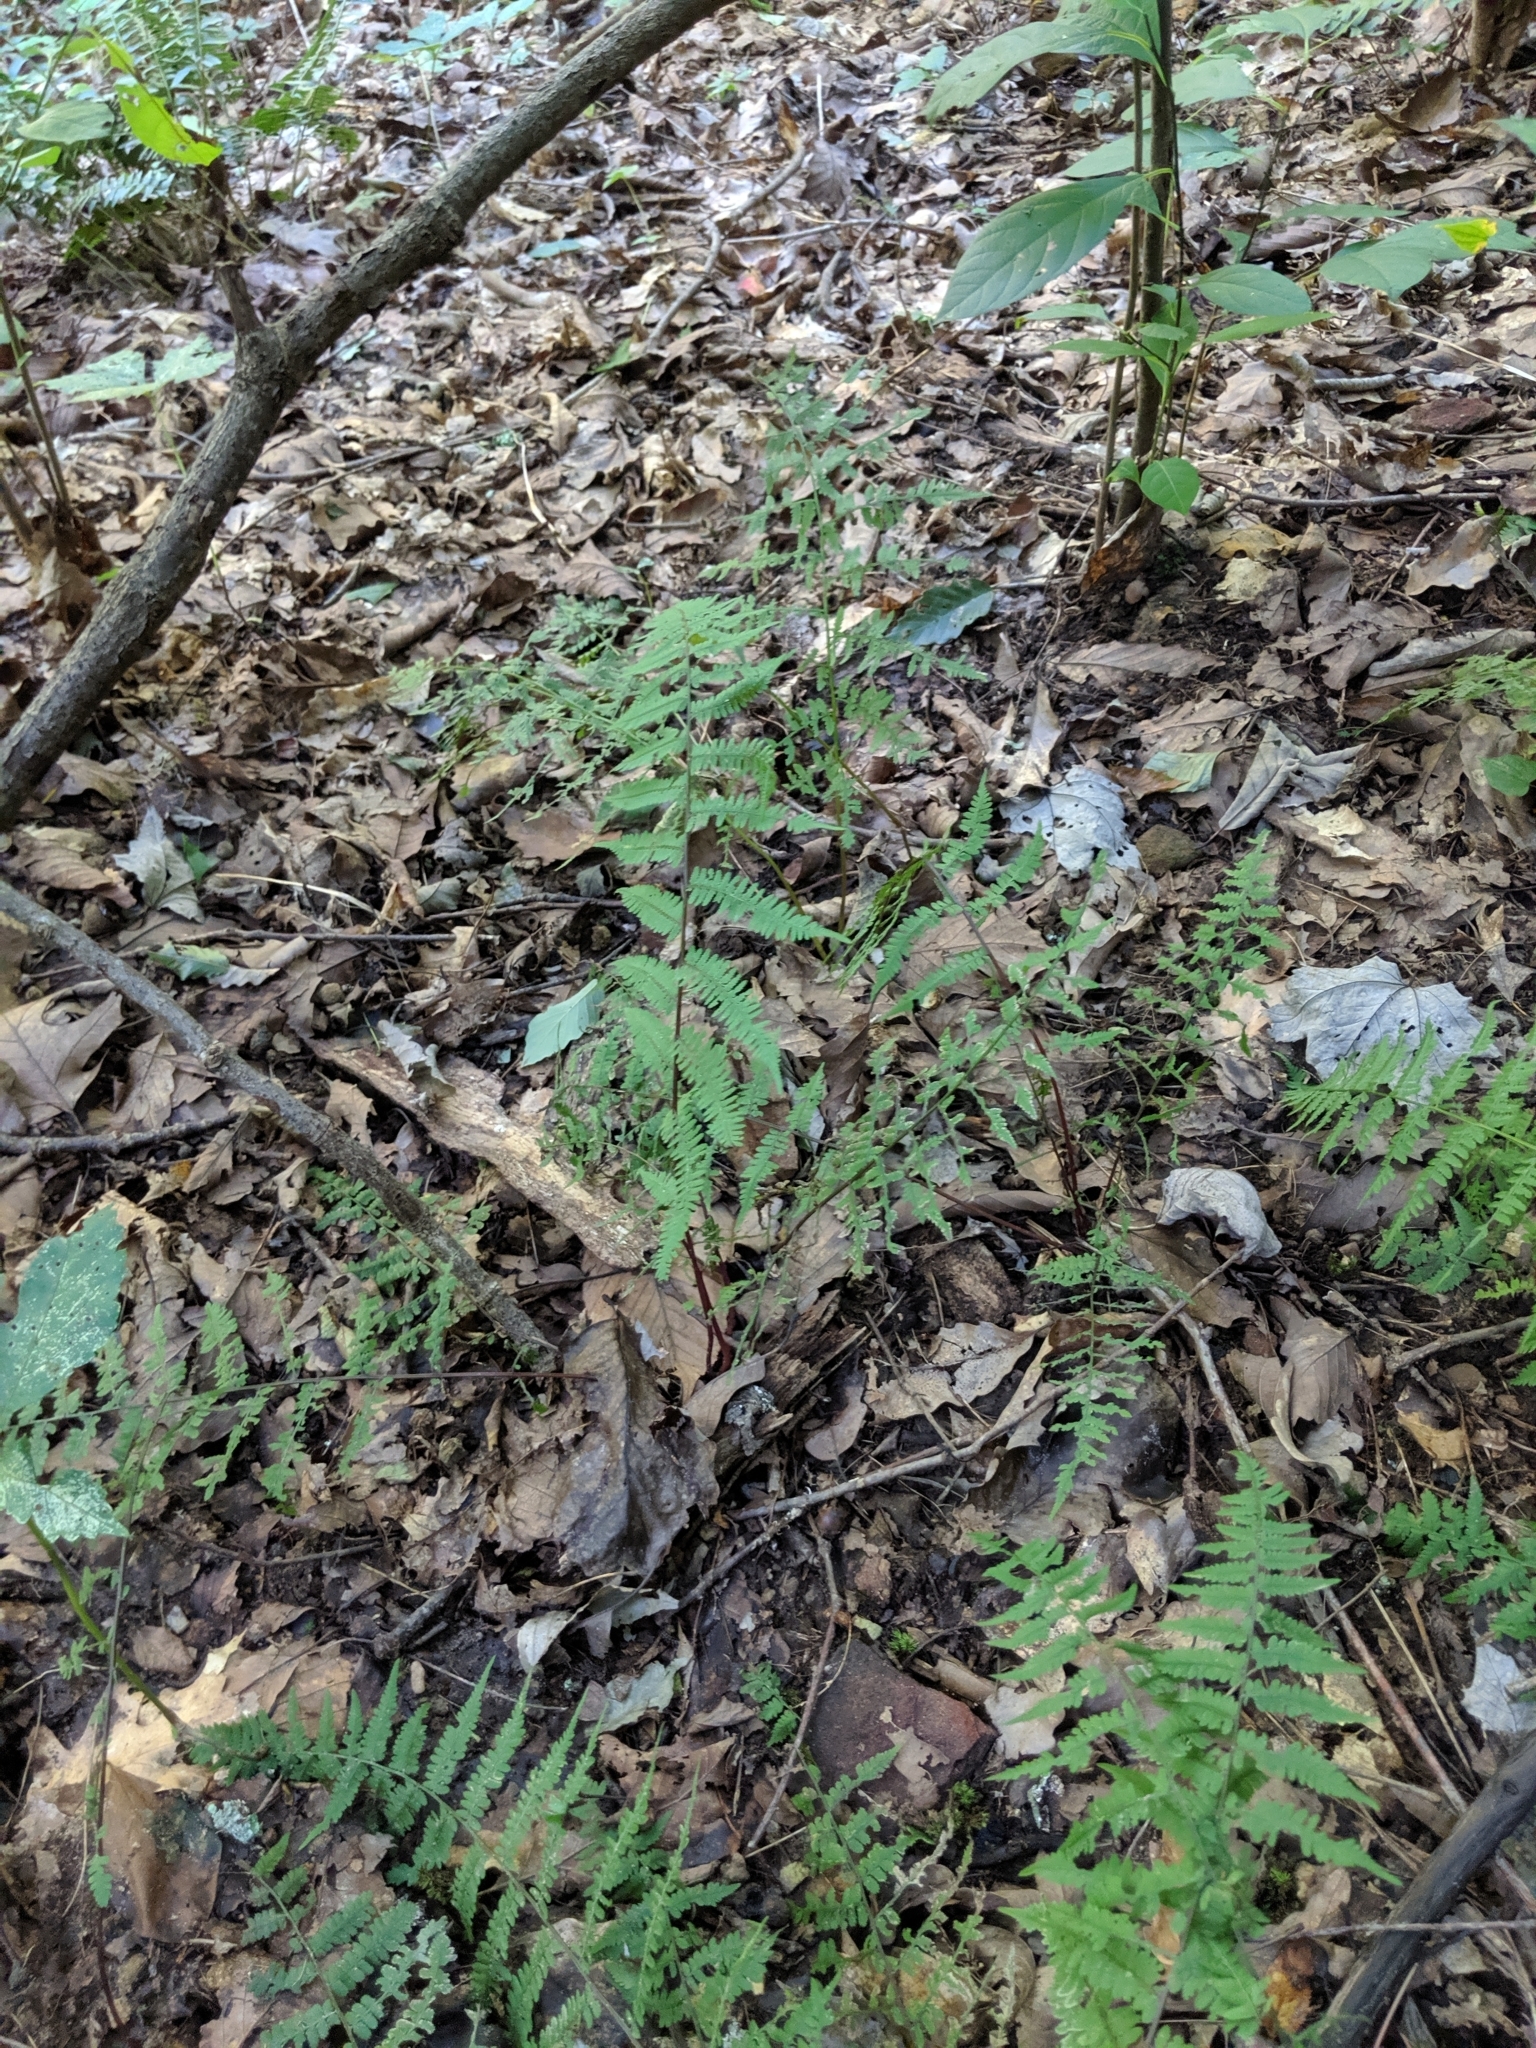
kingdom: Plantae
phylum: Tracheophyta
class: Polypodiopsida
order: Polypodiales
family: Athyriaceae
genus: Athyrium
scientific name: Athyrium asplenioides
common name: Southern lady fern
